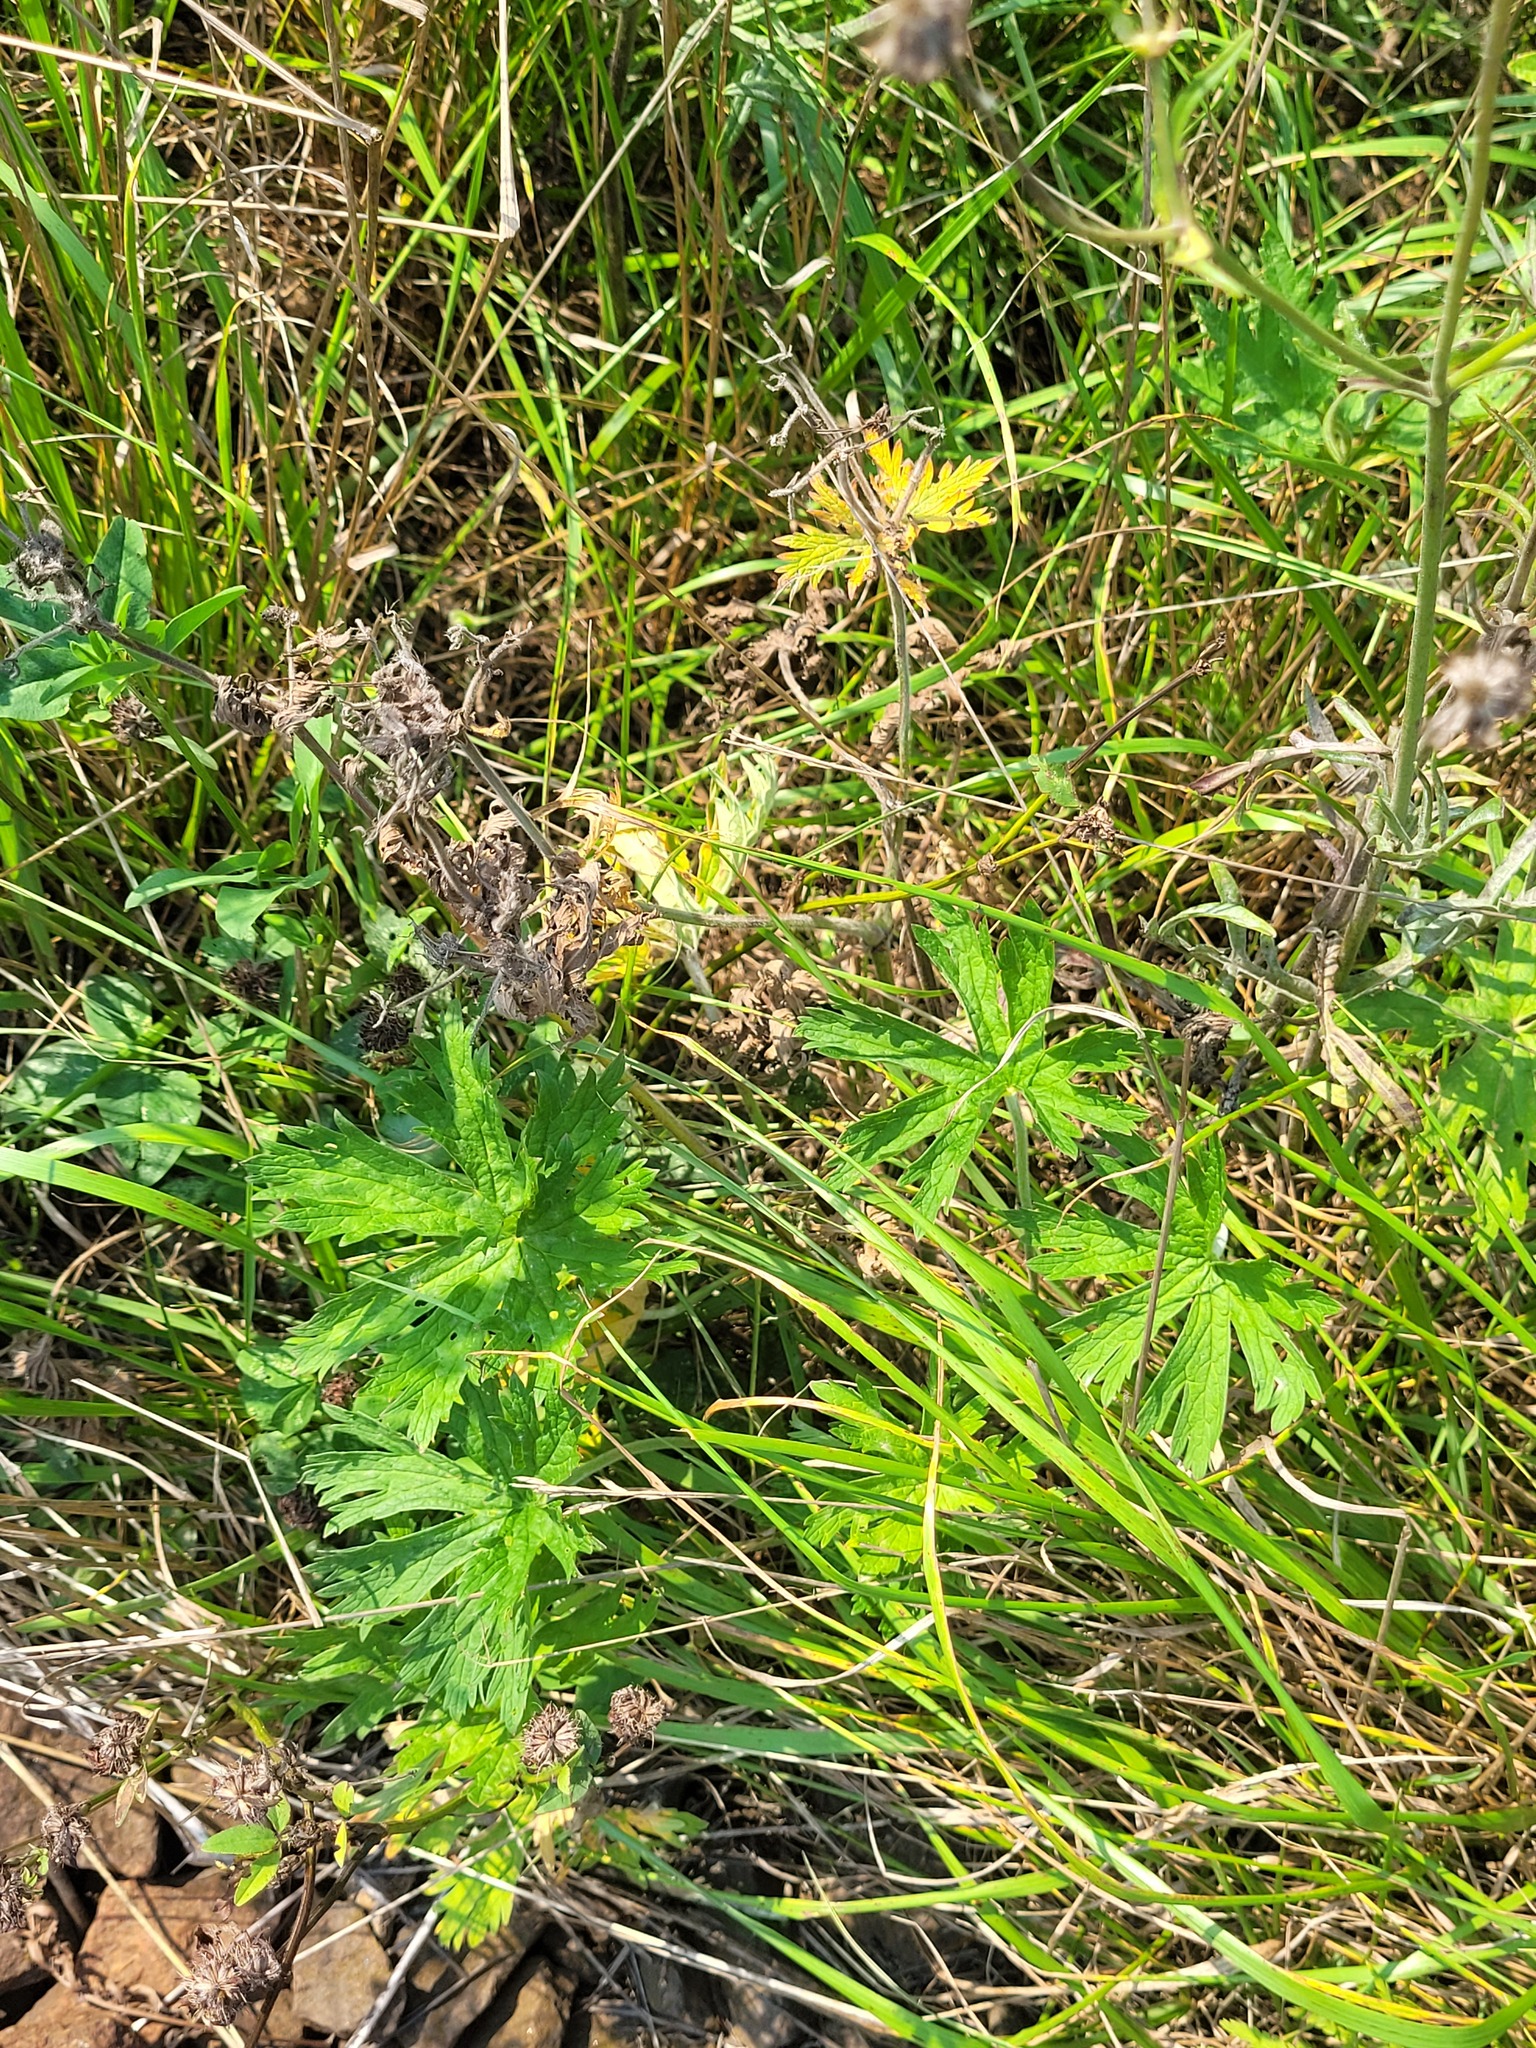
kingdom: Plantae
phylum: Tracheophyta
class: Magnoliopsida
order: Geraniales
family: Geraniaceae
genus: Geranium
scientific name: Geranium pratense
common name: Meadow crane's-bill
